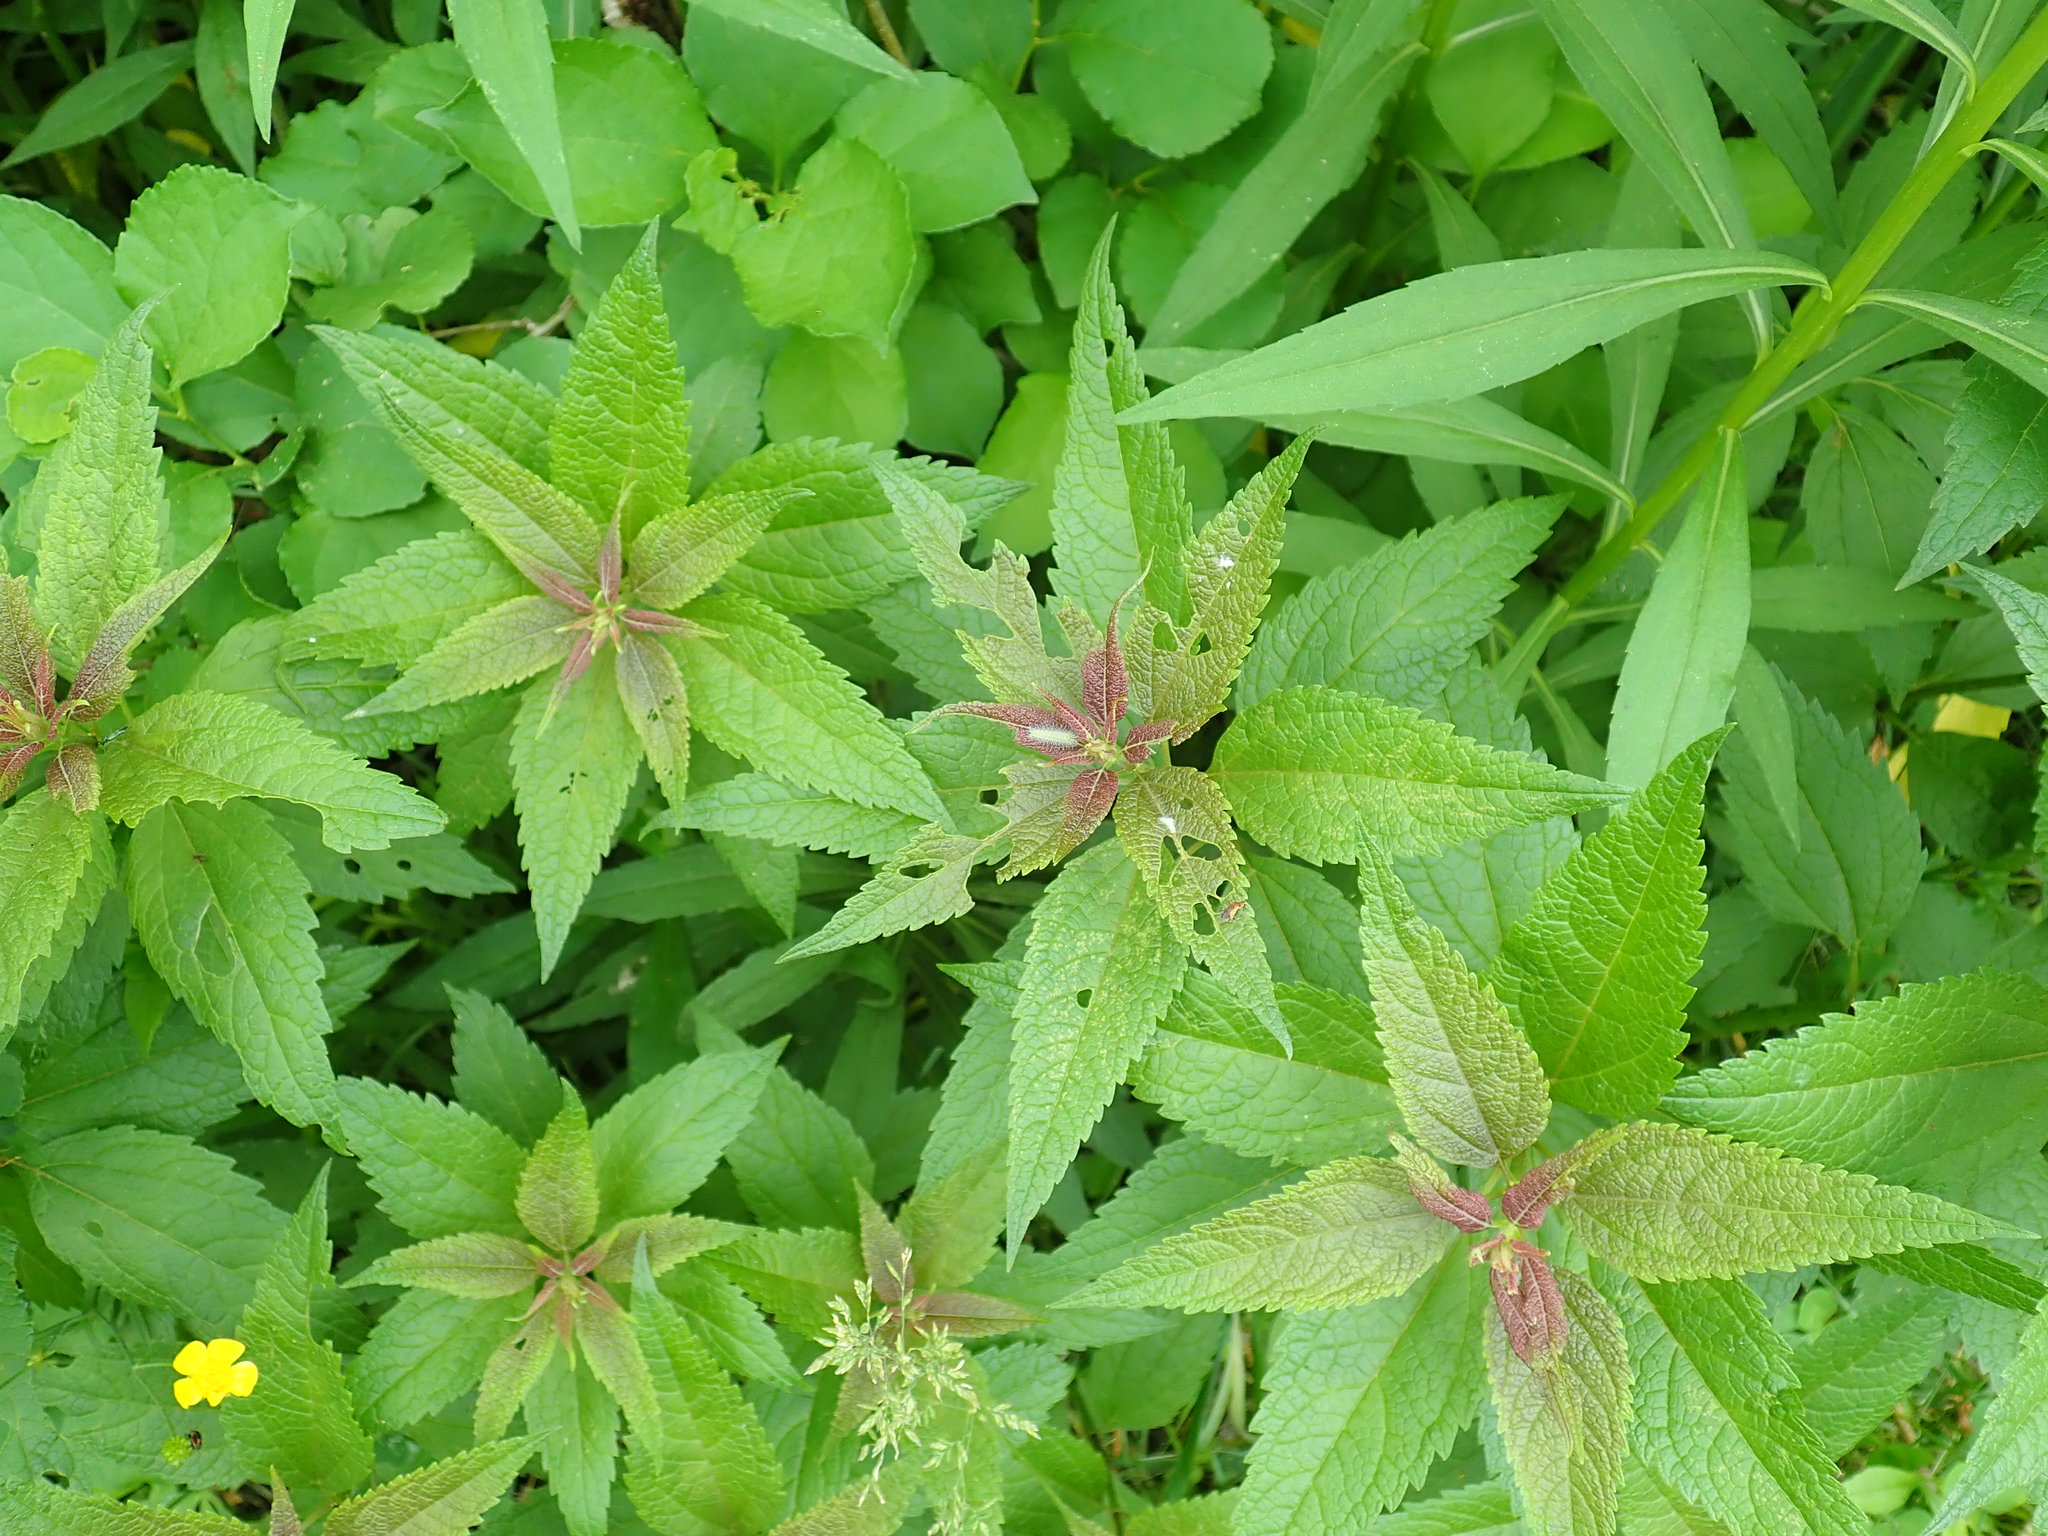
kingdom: Plantae
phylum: Tracheophyta
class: Magnoliopsida
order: Asterales
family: Asteraceae
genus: Eutrochium
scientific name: Eutrochium
